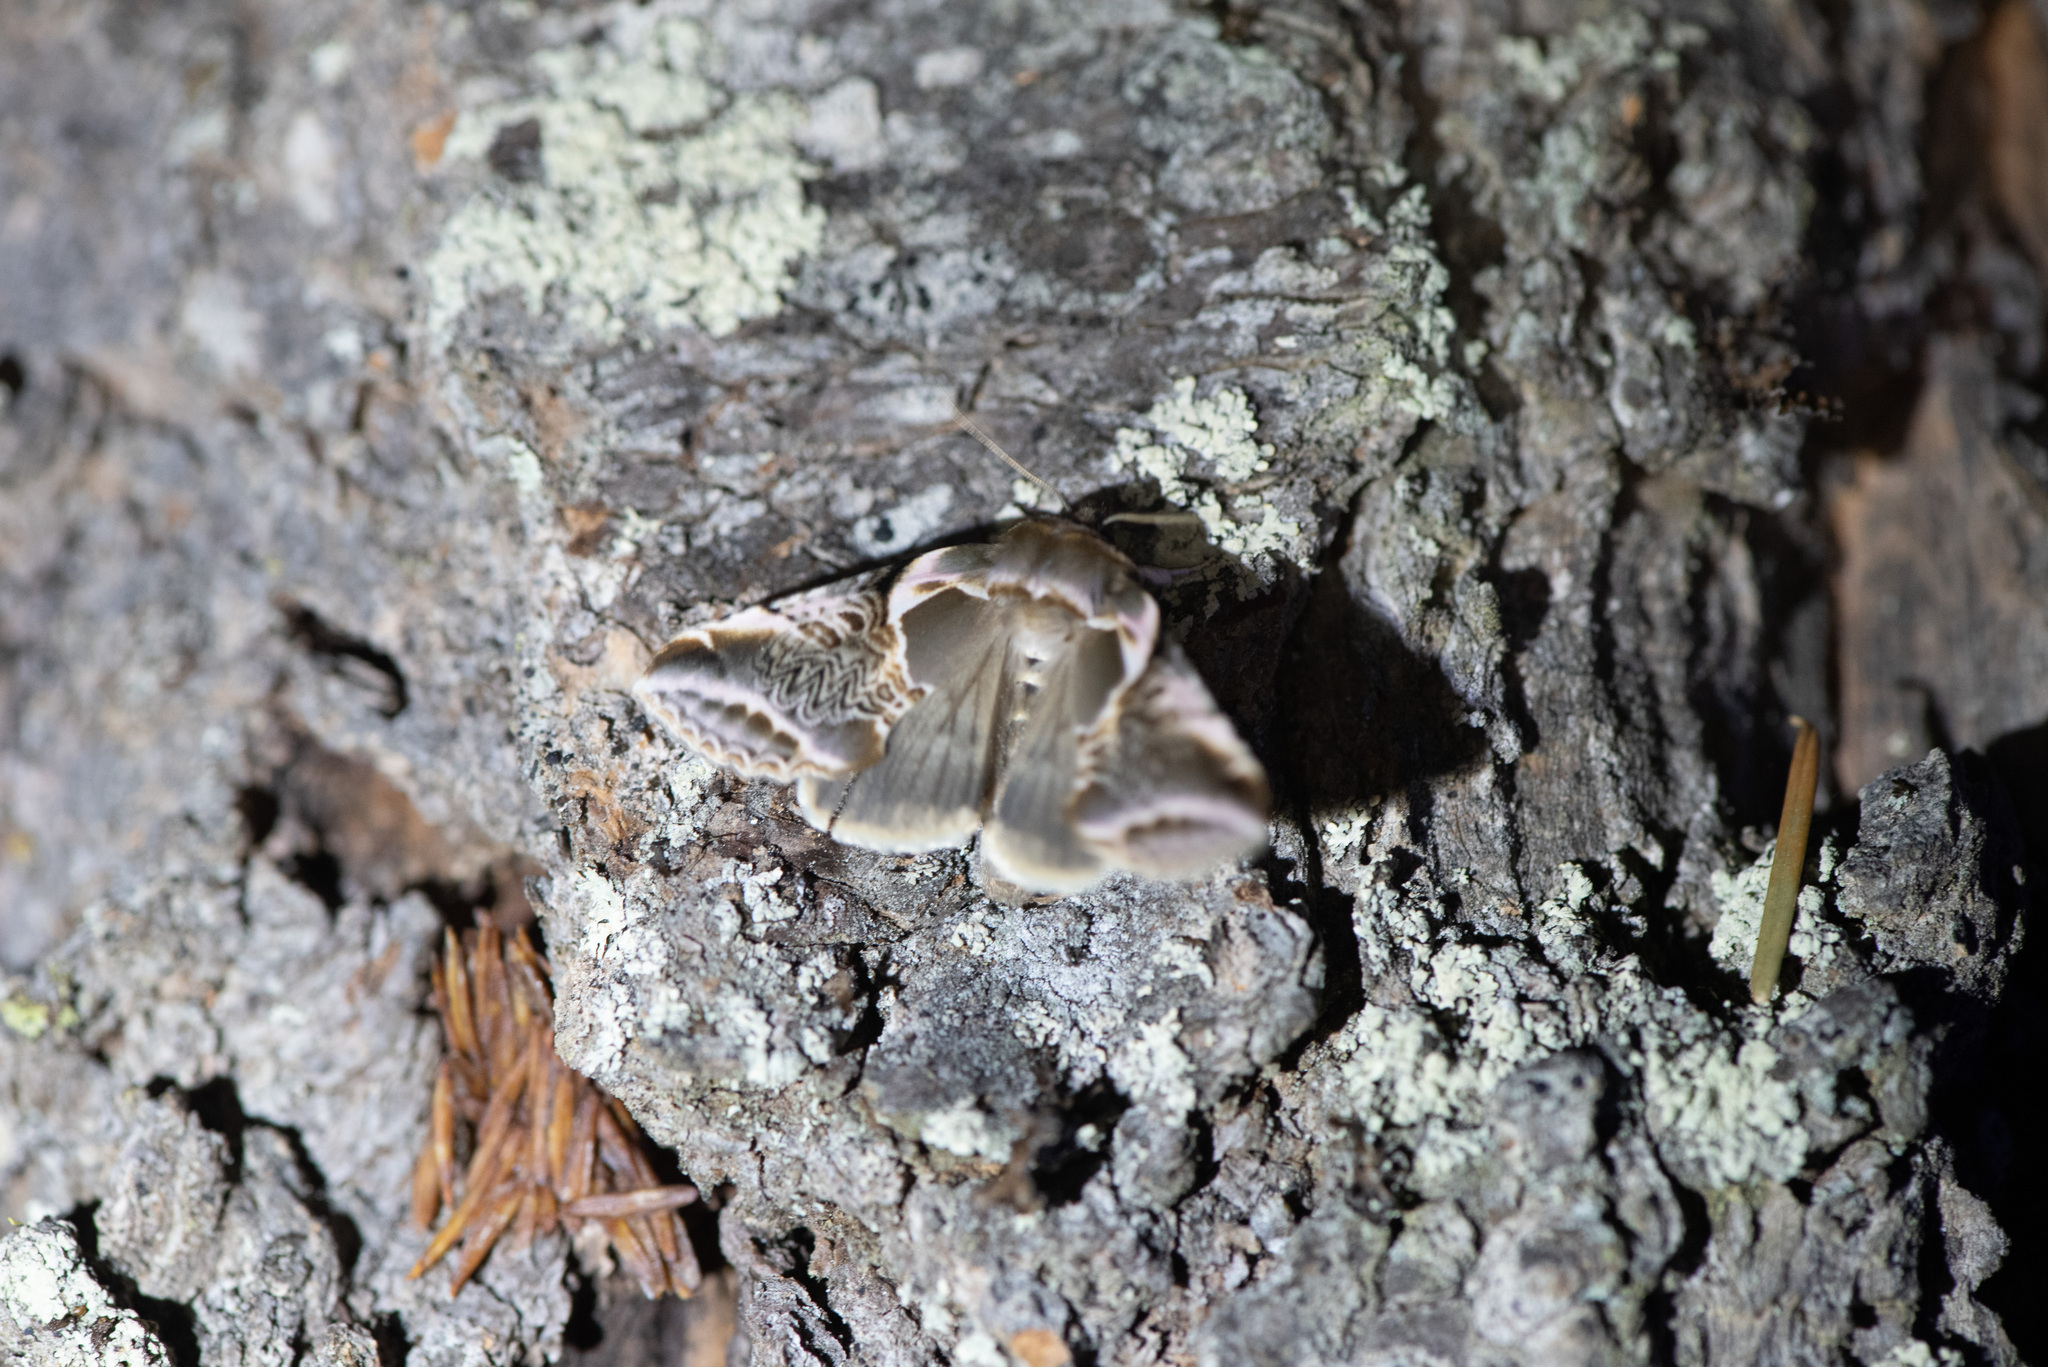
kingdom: Animalia
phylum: Arthropoda
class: Insecta
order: Lepidoptera
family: Drepanidae
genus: Habrosyne
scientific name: Habrosyne scripta
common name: Lettered habrosyne moth
